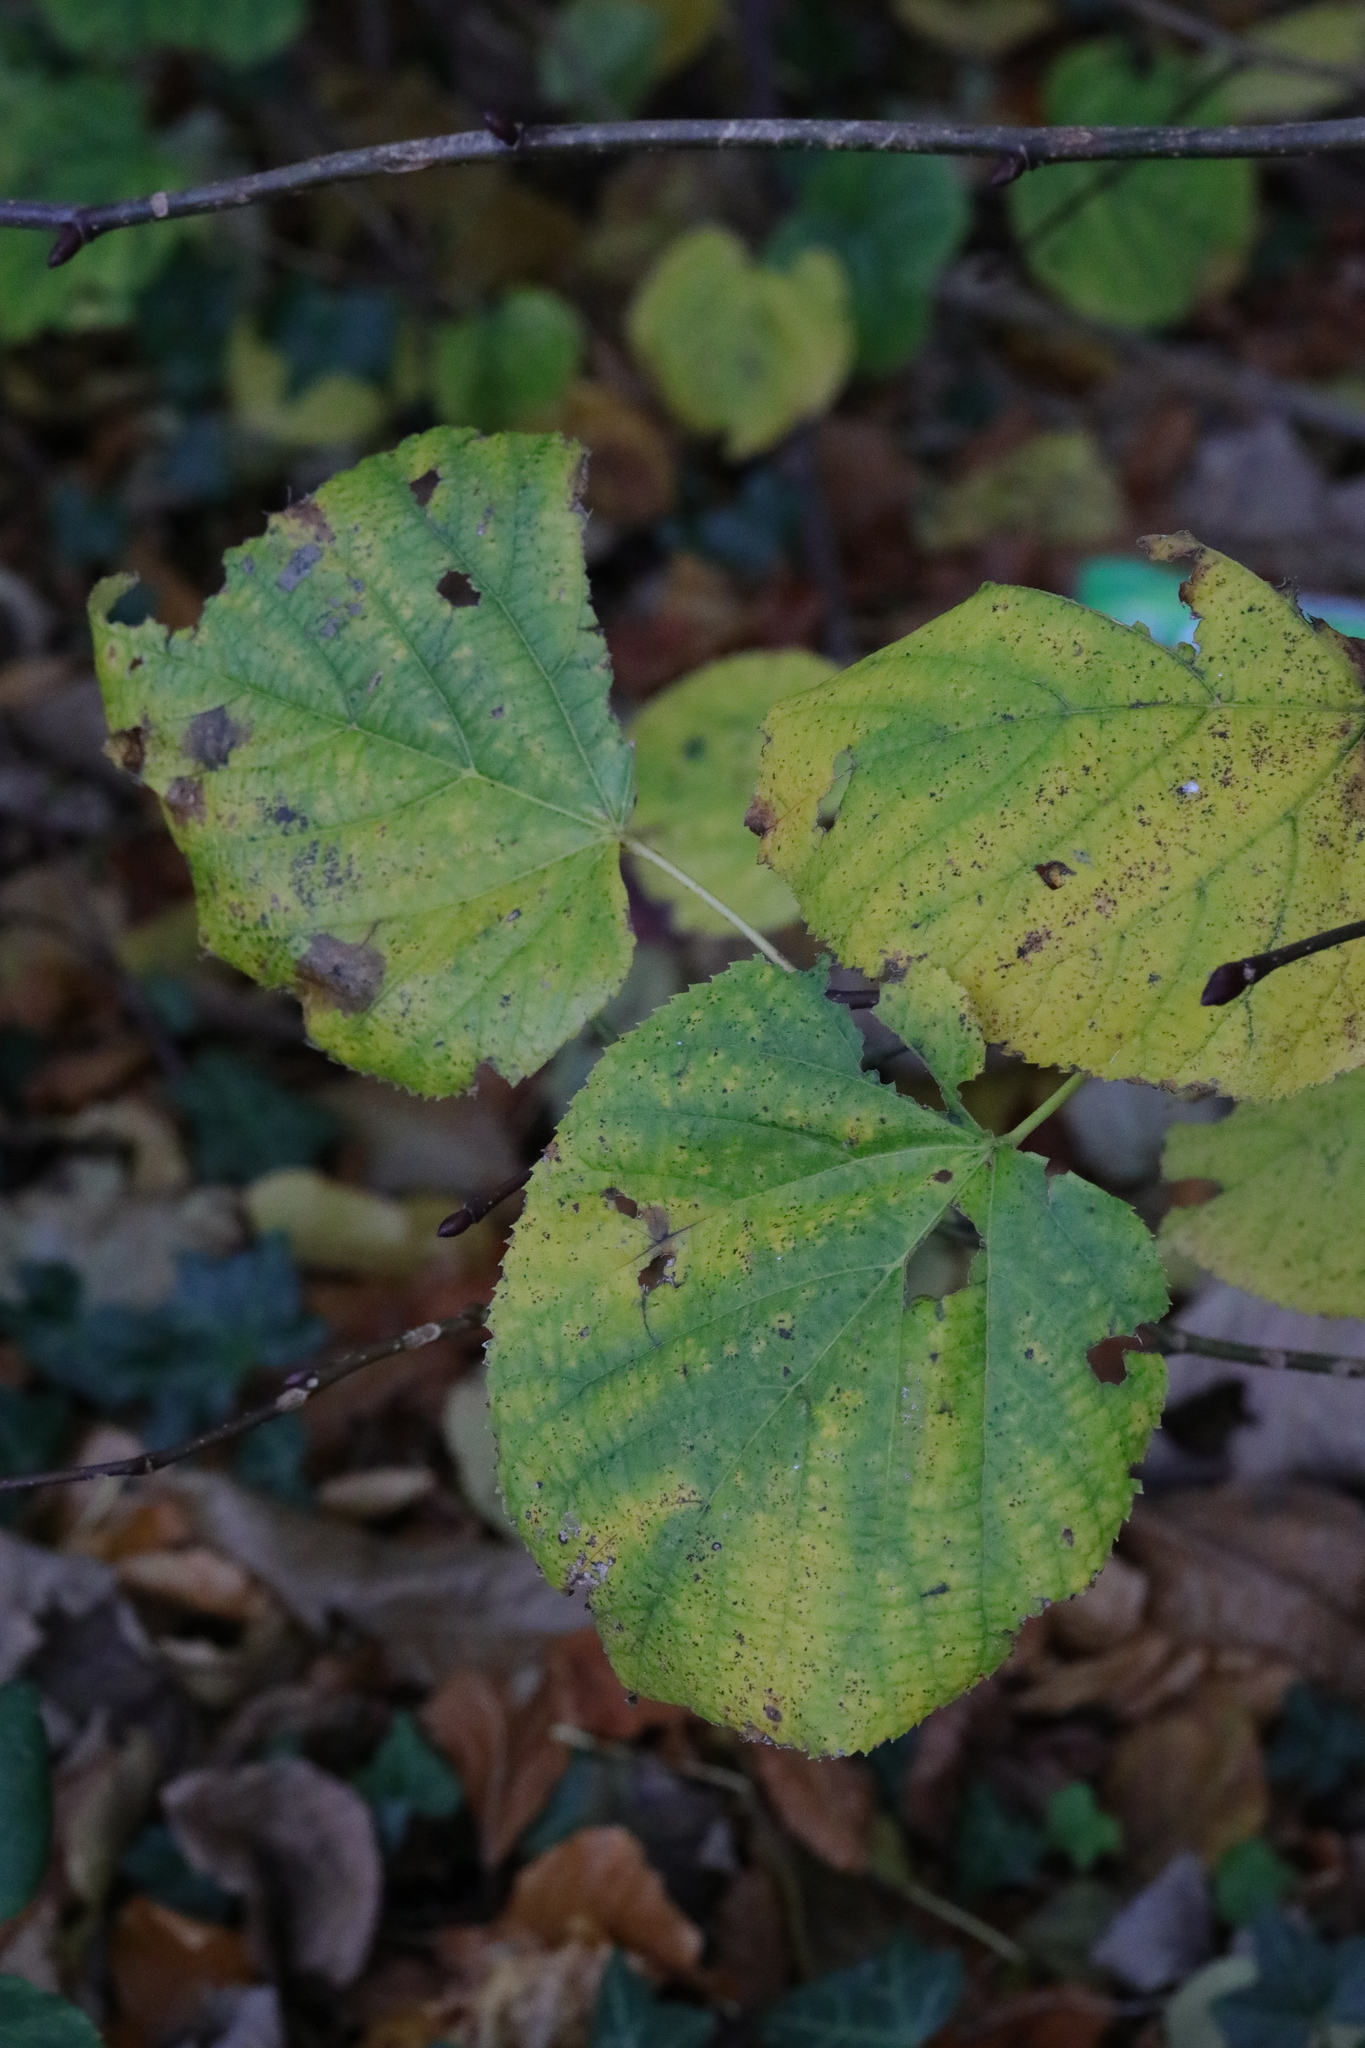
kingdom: Plantae
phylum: Tracheophyta
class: Magnoliopsida
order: Malvales
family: Malvaceae
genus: Tilia
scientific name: Tilia europaea
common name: European linden
